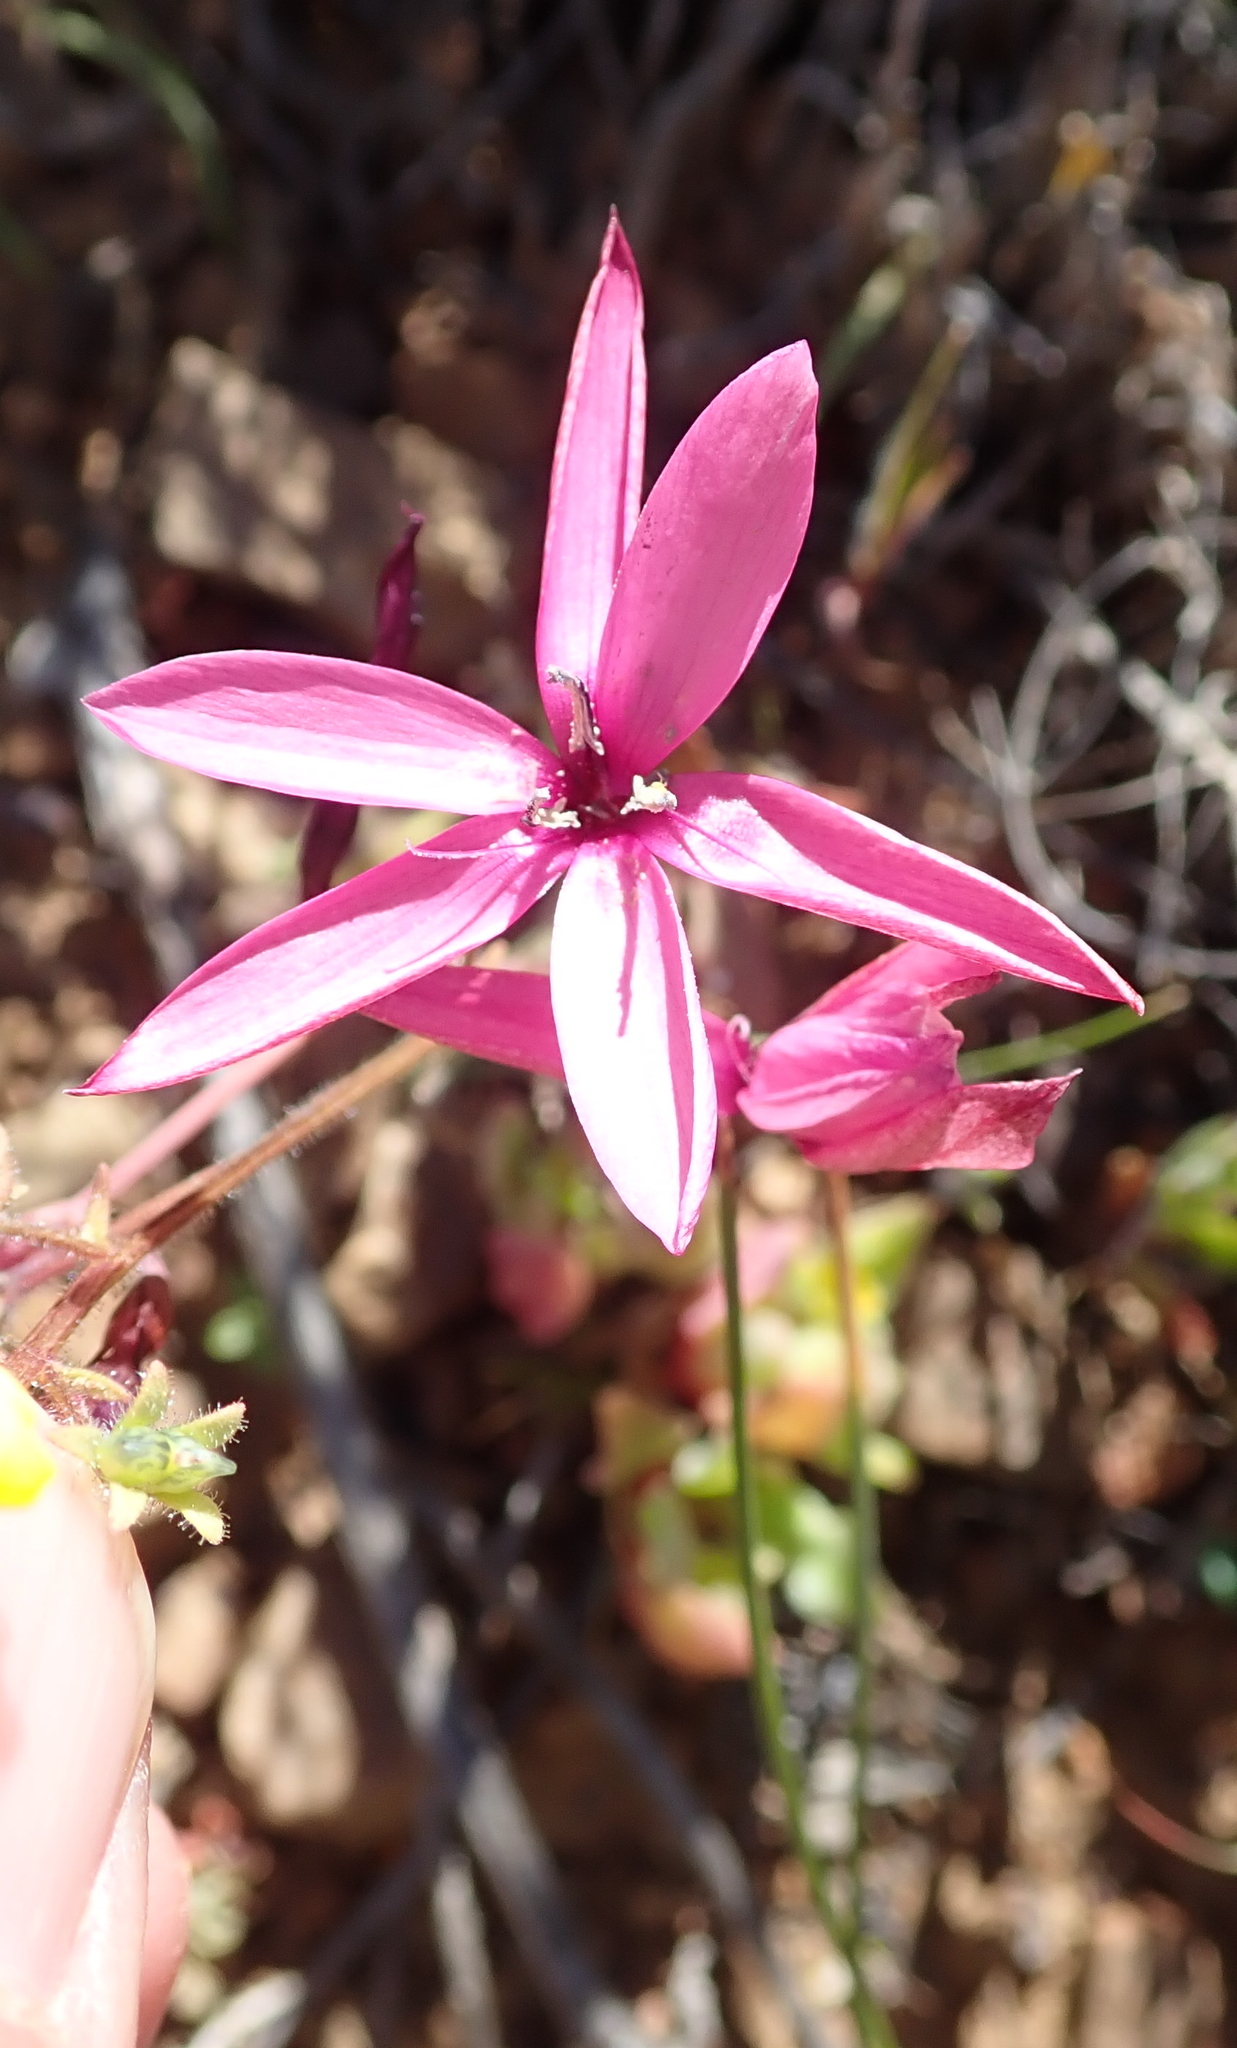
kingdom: Plantae
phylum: Tracheophyta
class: Liliopsida
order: Asparagales
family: Iridaceae
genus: Hesperantha
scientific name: Hesperantha pauciflora
